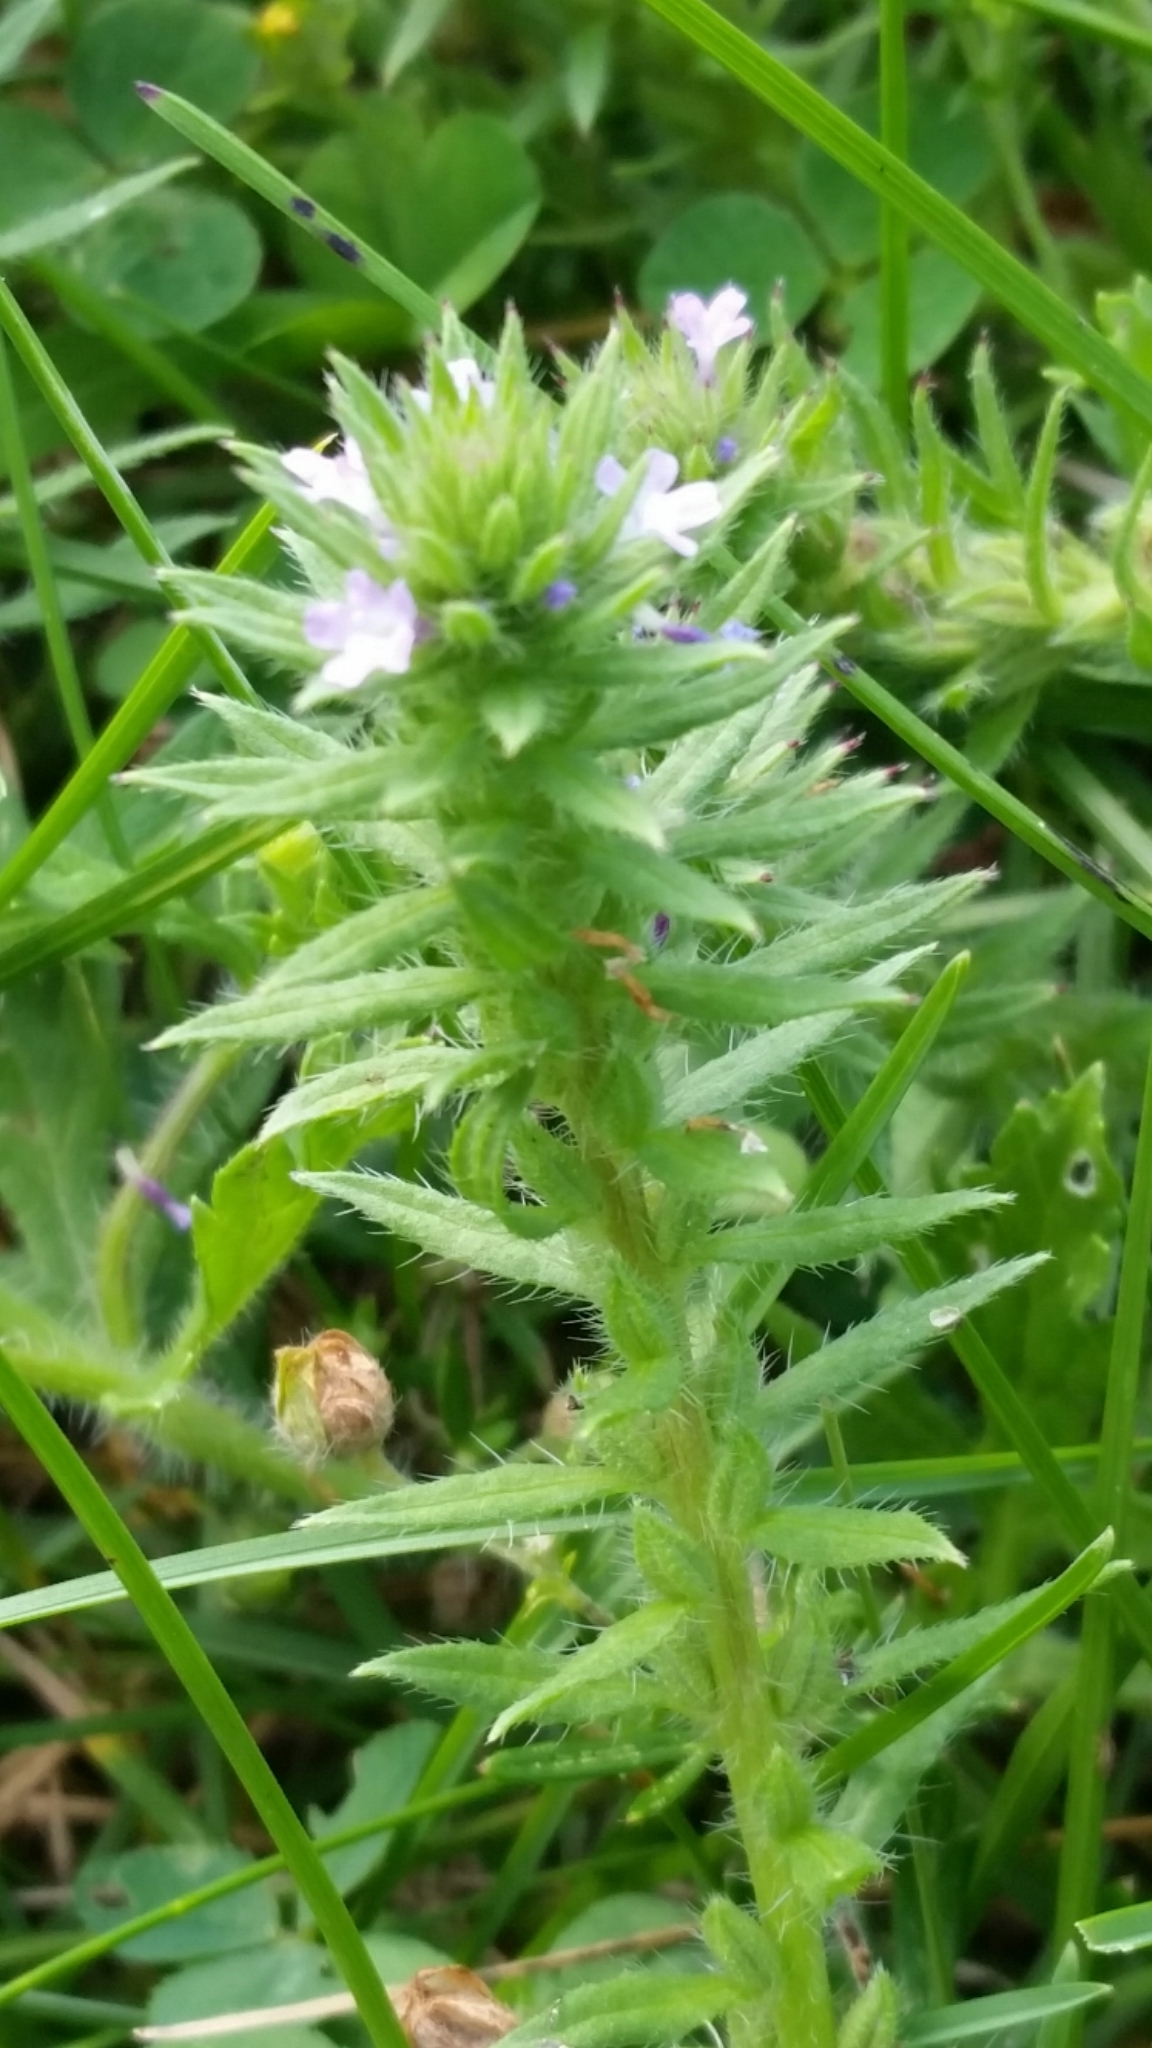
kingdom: Plantae
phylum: Tracheophyta
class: Magnoliopsida
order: Lamiales
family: Verbenaceae
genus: Verbena
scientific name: Verbena bracteata
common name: Bracted vervain
